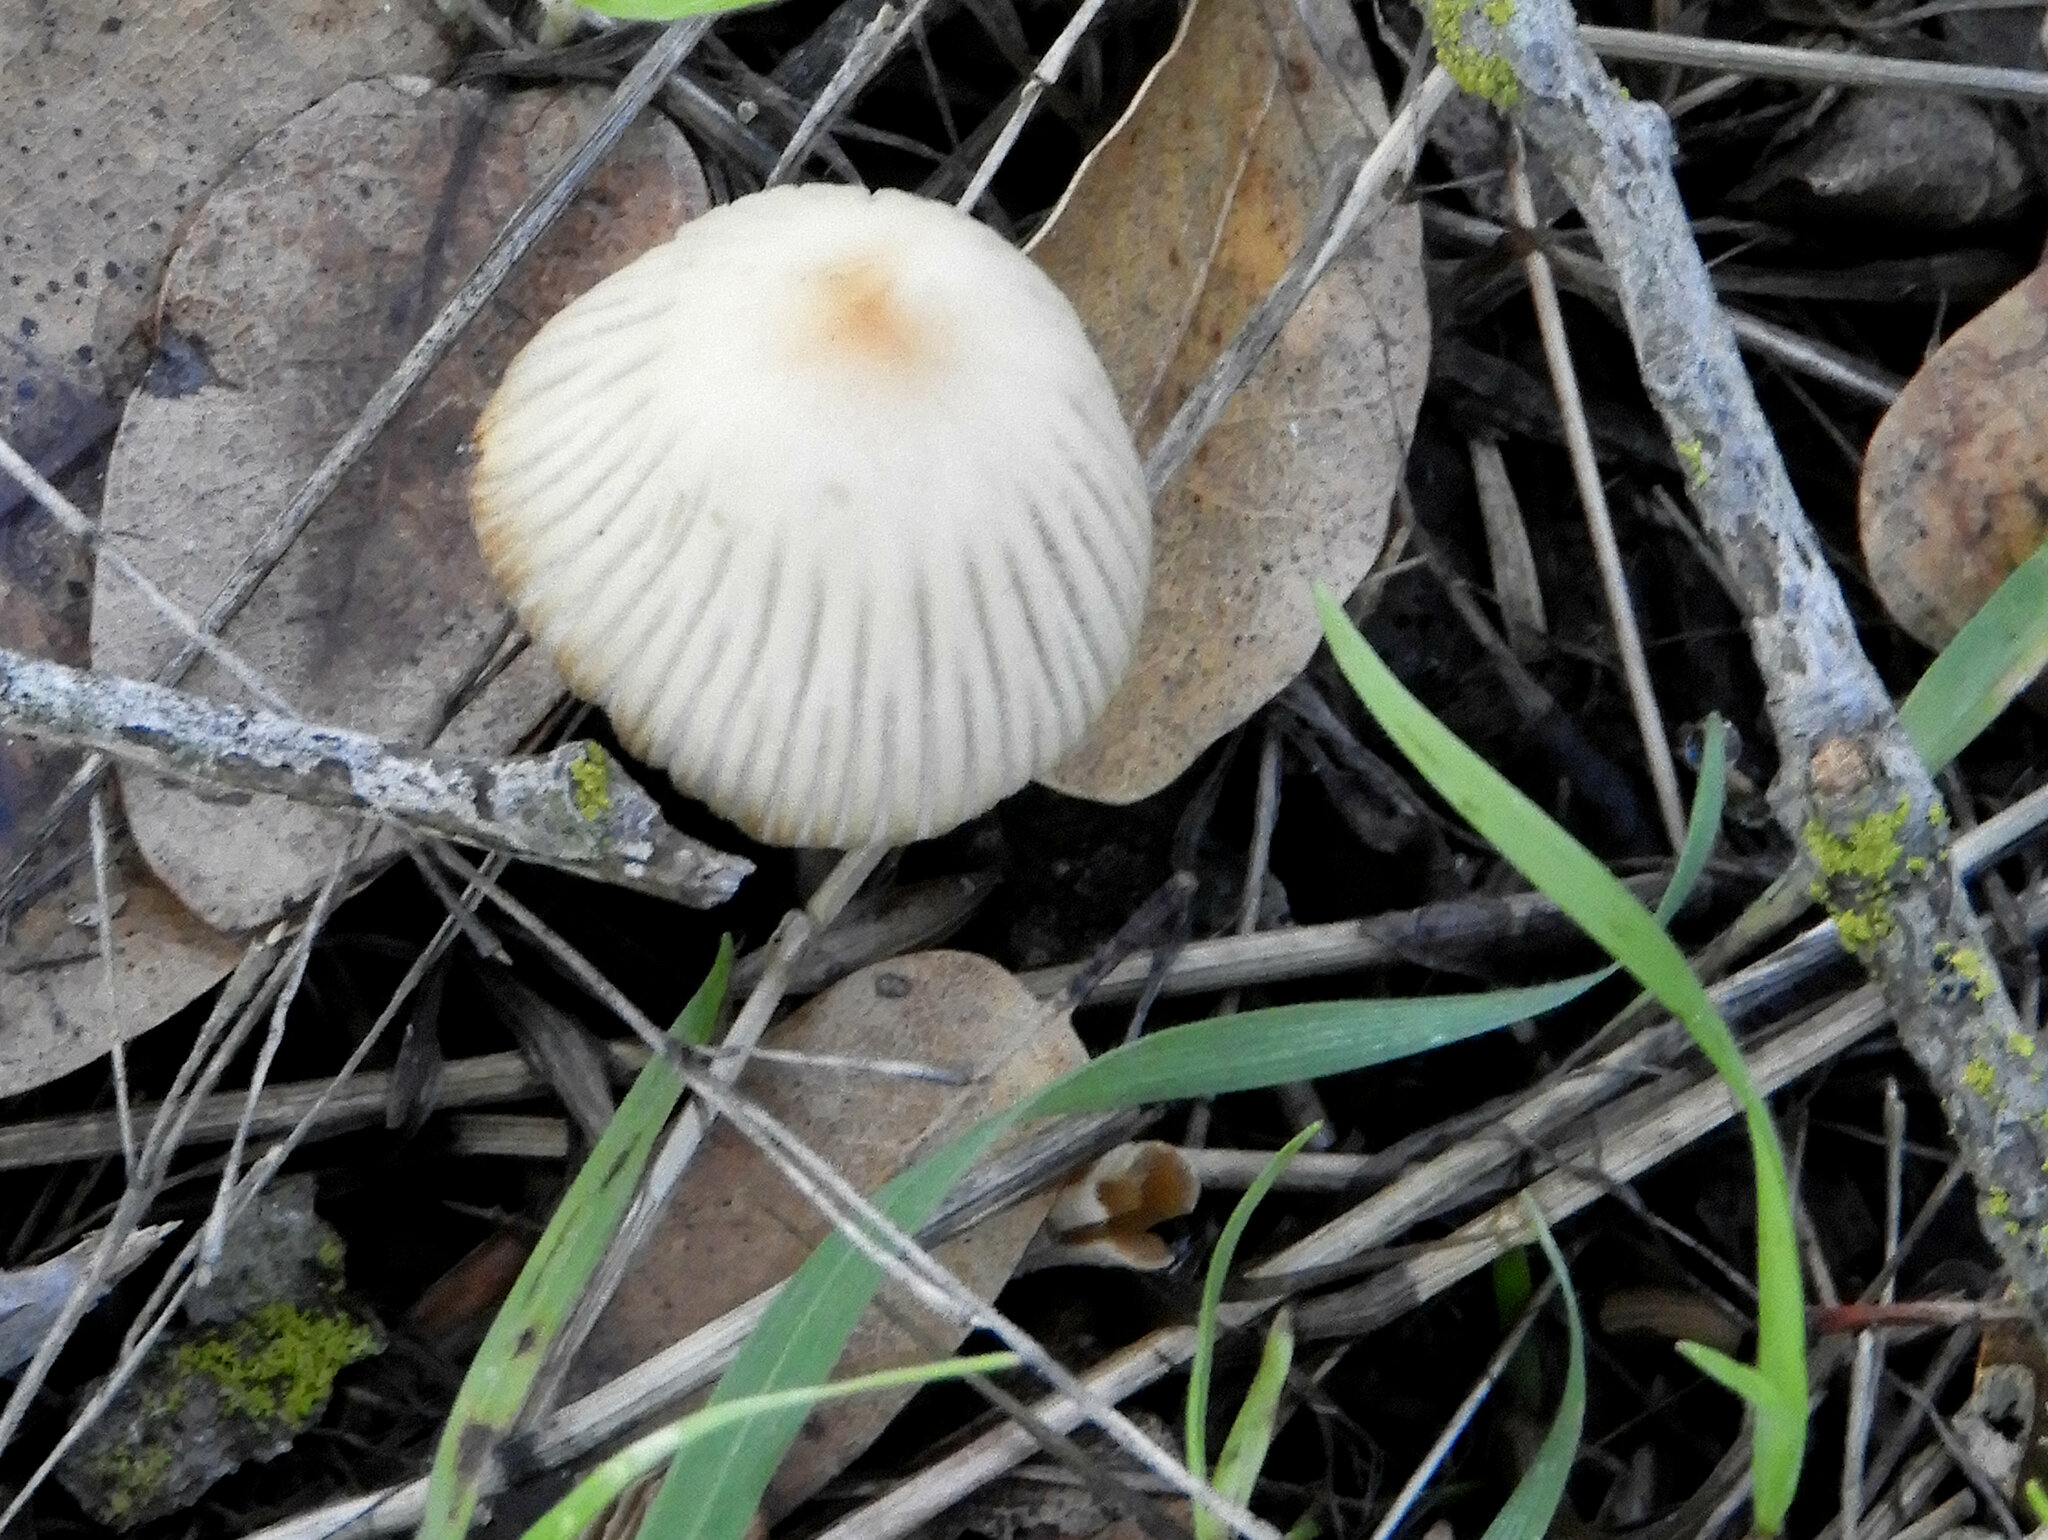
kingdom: Fungi
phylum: Basidiomycota
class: Agaricomycetes
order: Agaricales
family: Psathyrellaceae
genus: Tulosesus
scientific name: Tulosesus impatiens
